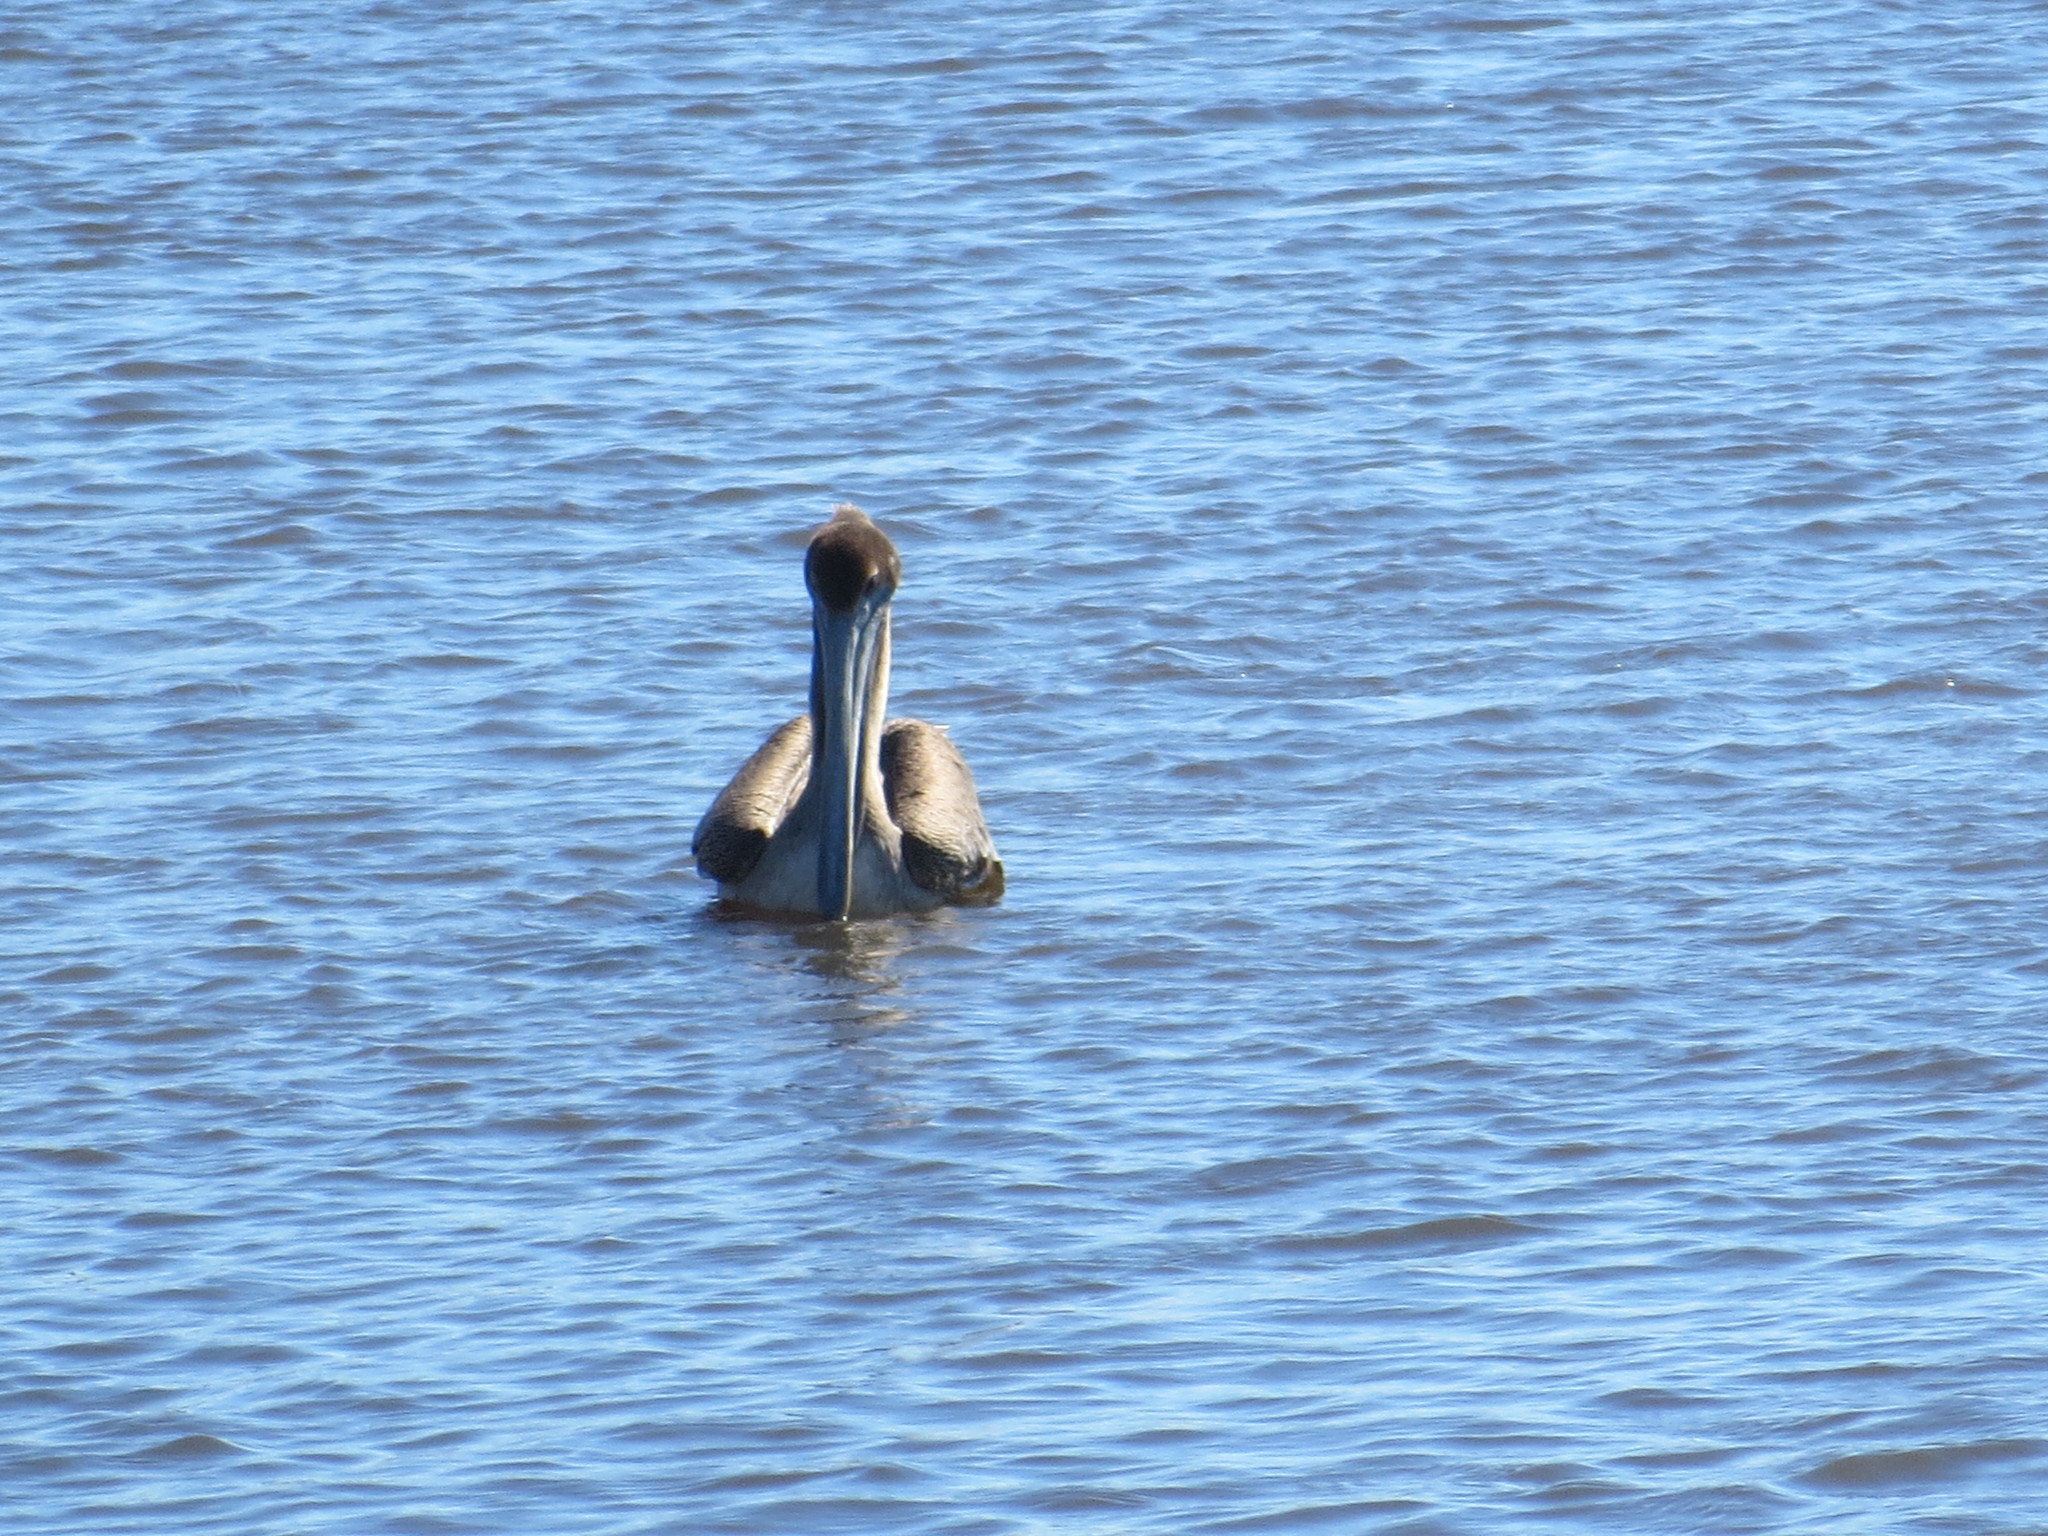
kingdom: Animalia
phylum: Chordata
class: Aves
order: Pelecaniformes
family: Pelecanidae
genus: Pelecanus
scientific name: Pelecanus occidentalis
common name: Brown pelican
